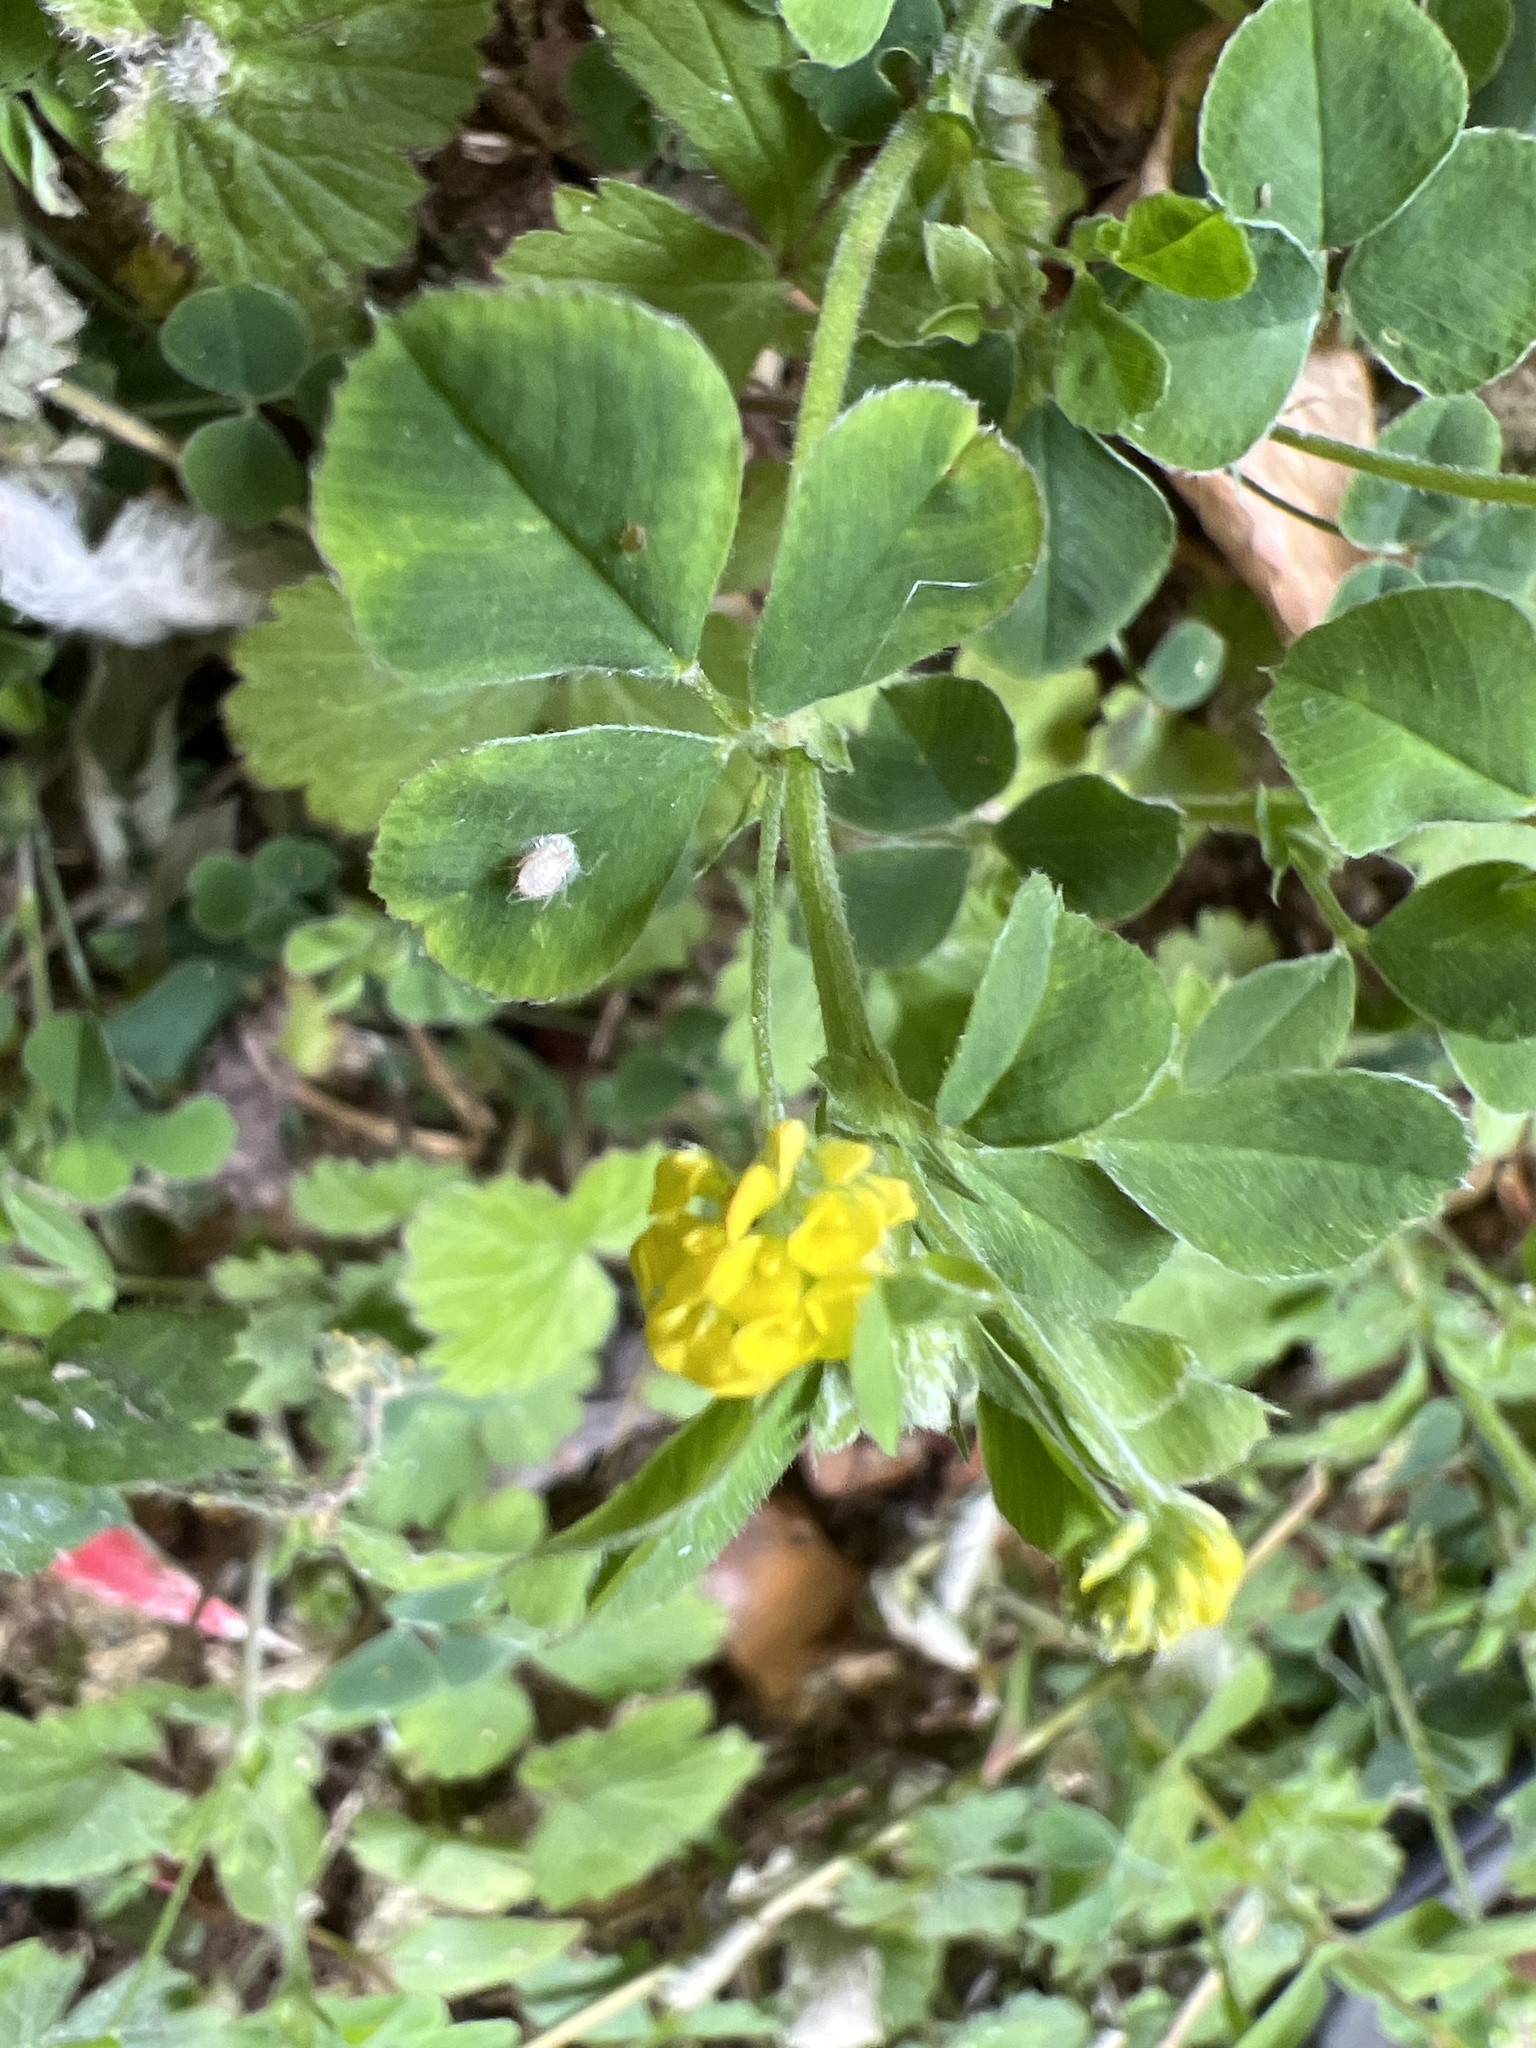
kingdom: Plantae
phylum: Tracheophyta
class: Magnoliopsida
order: Fabales
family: Fabaceae
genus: Medicago
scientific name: Medicago lupulina
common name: Black medick
